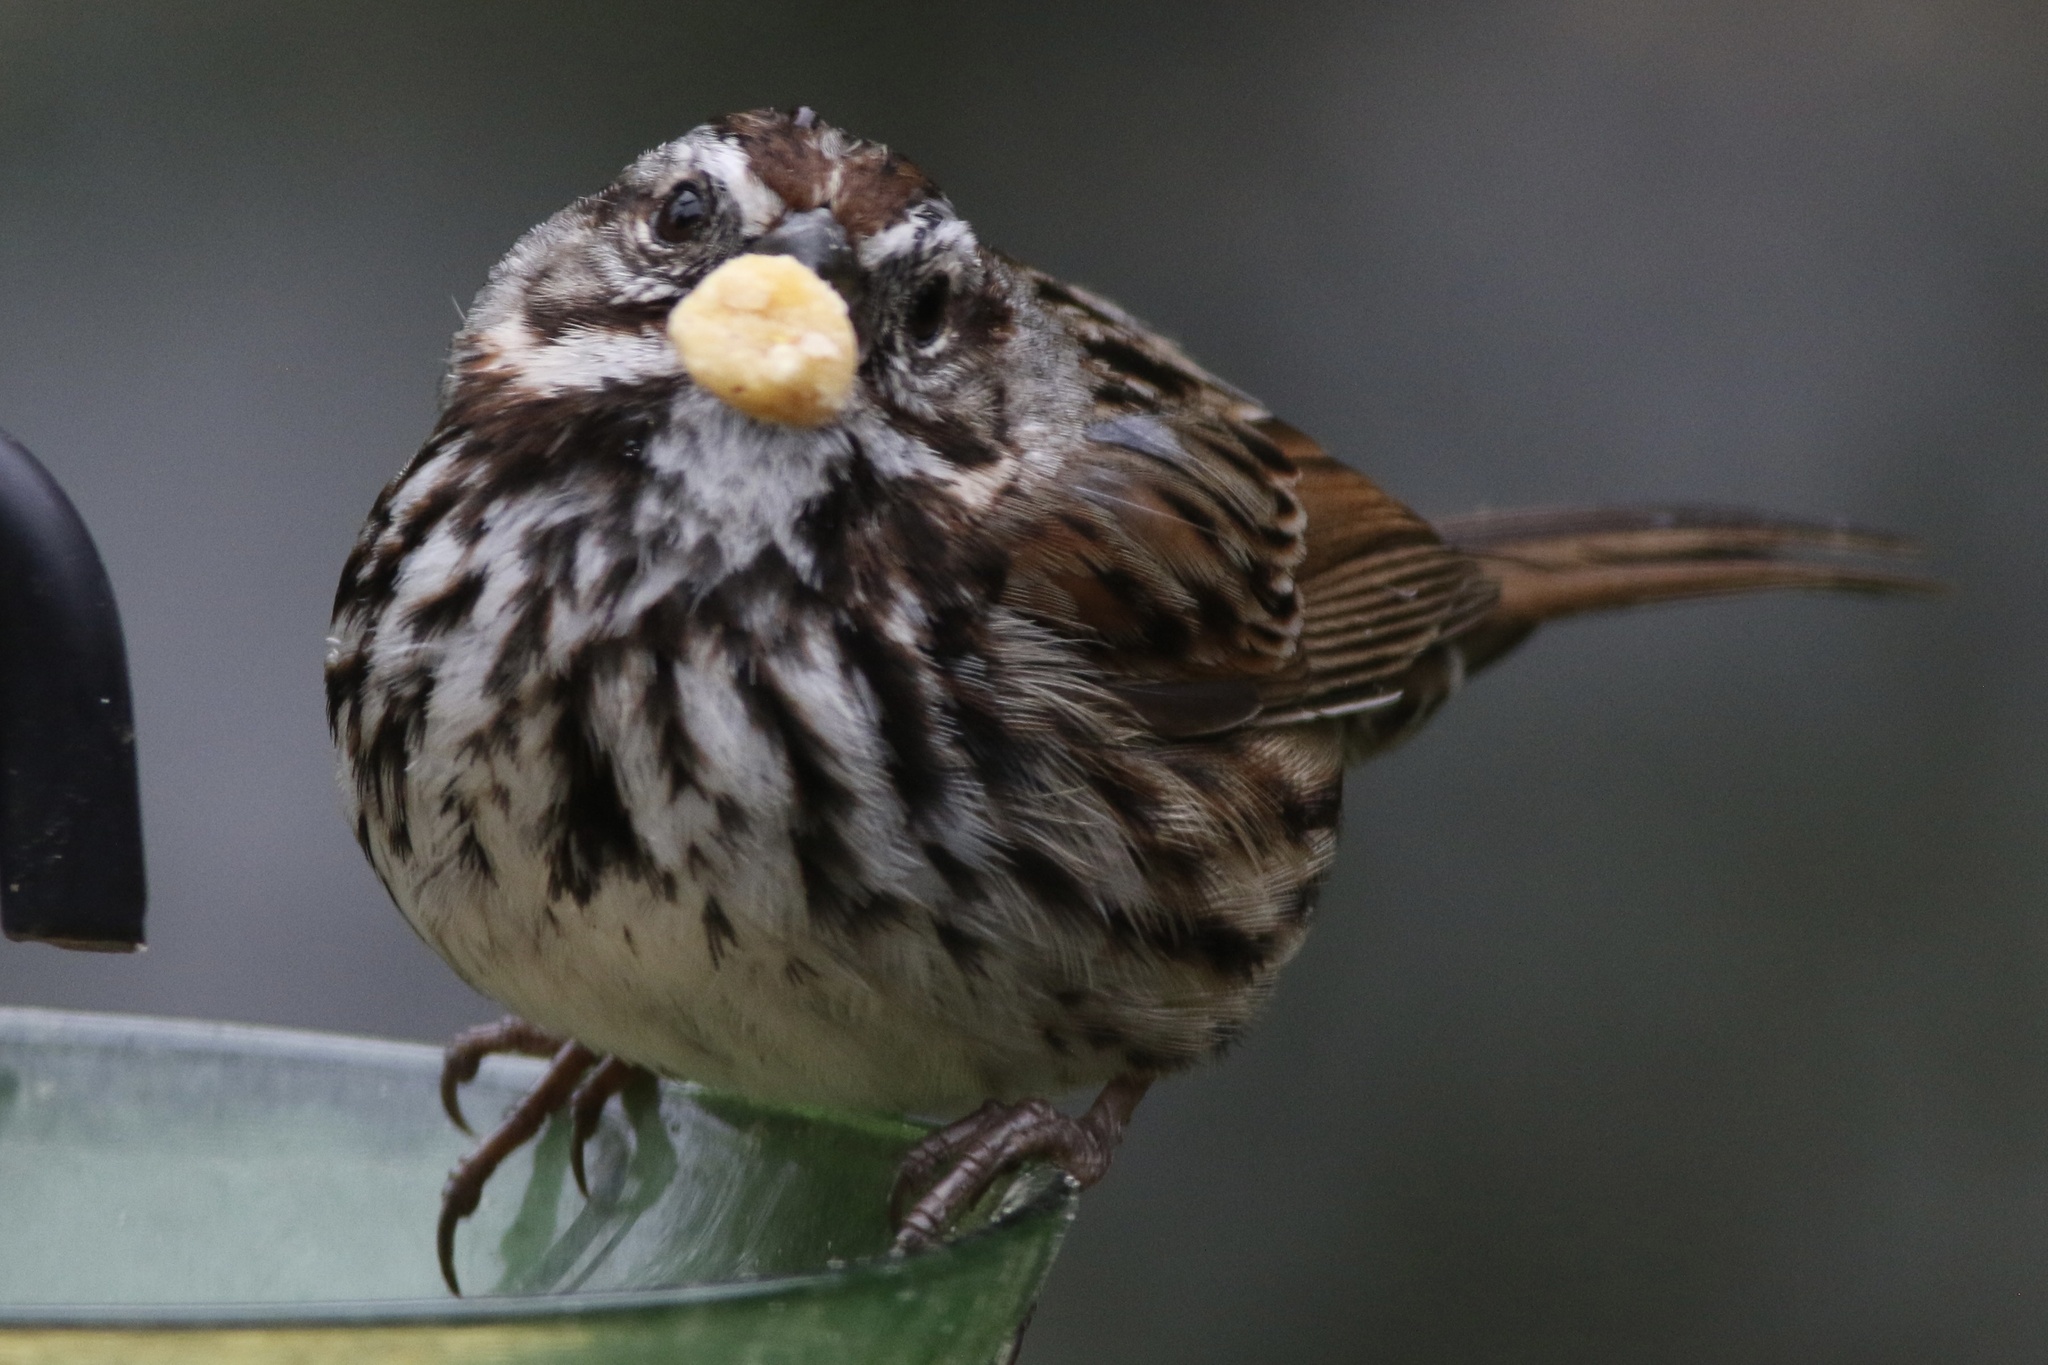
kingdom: Animalia
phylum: Chordata
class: Aves
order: Passeriformes
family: Passerellidae
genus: Melospiza
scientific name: Melospiza melodia
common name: Song sparrow
